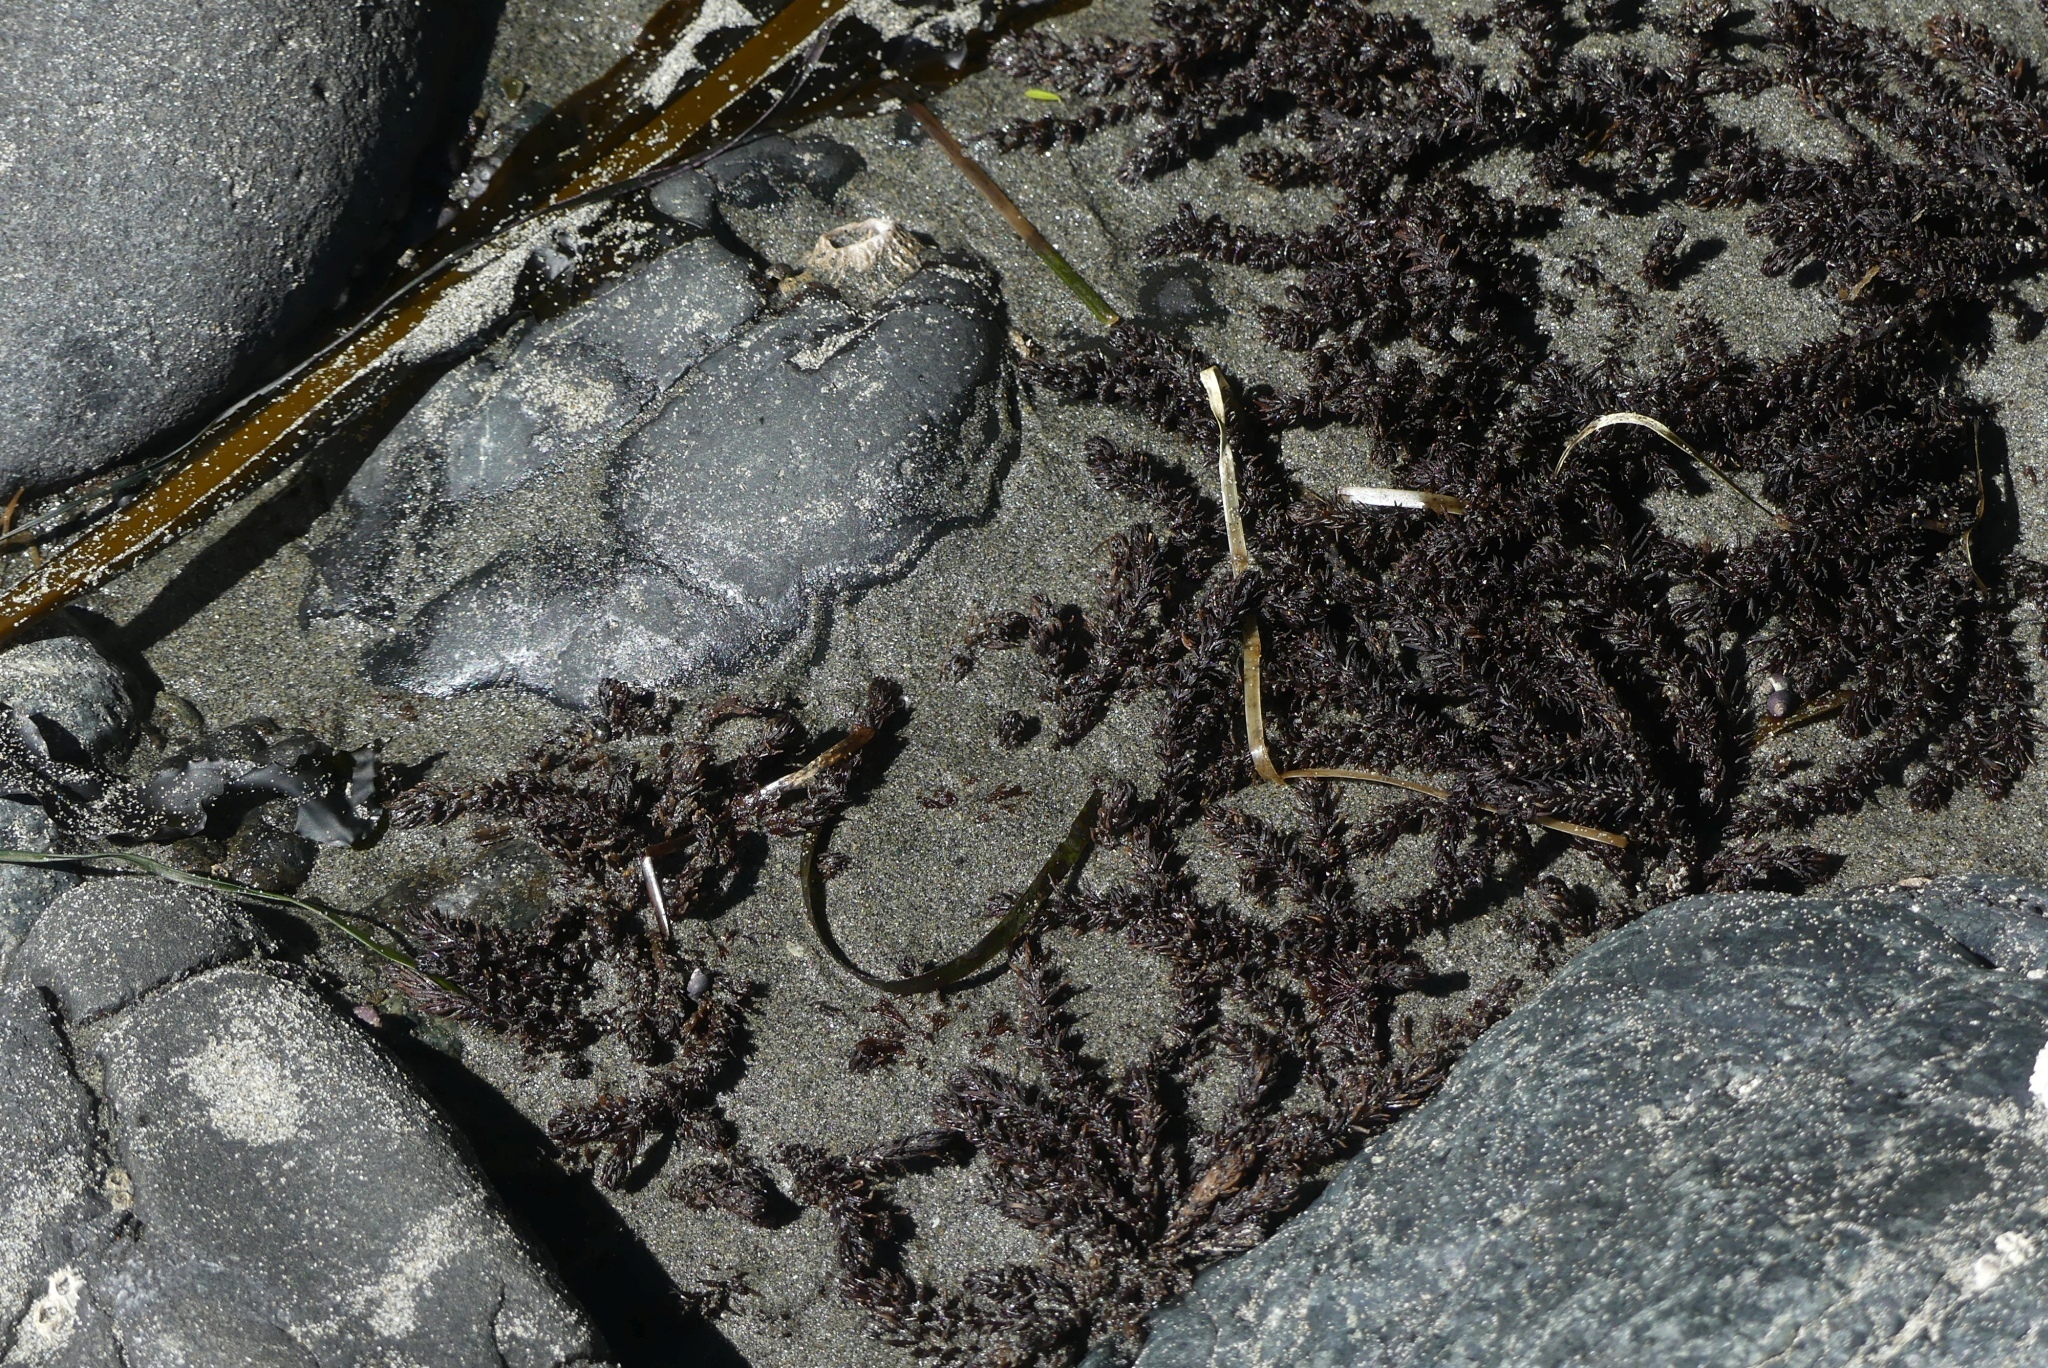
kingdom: Plantae
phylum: Rhodophyta
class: Florideophyceae
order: Ceramiales
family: Rhodomelaceae
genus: Neorhodomela
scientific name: Neorhodomela larix
